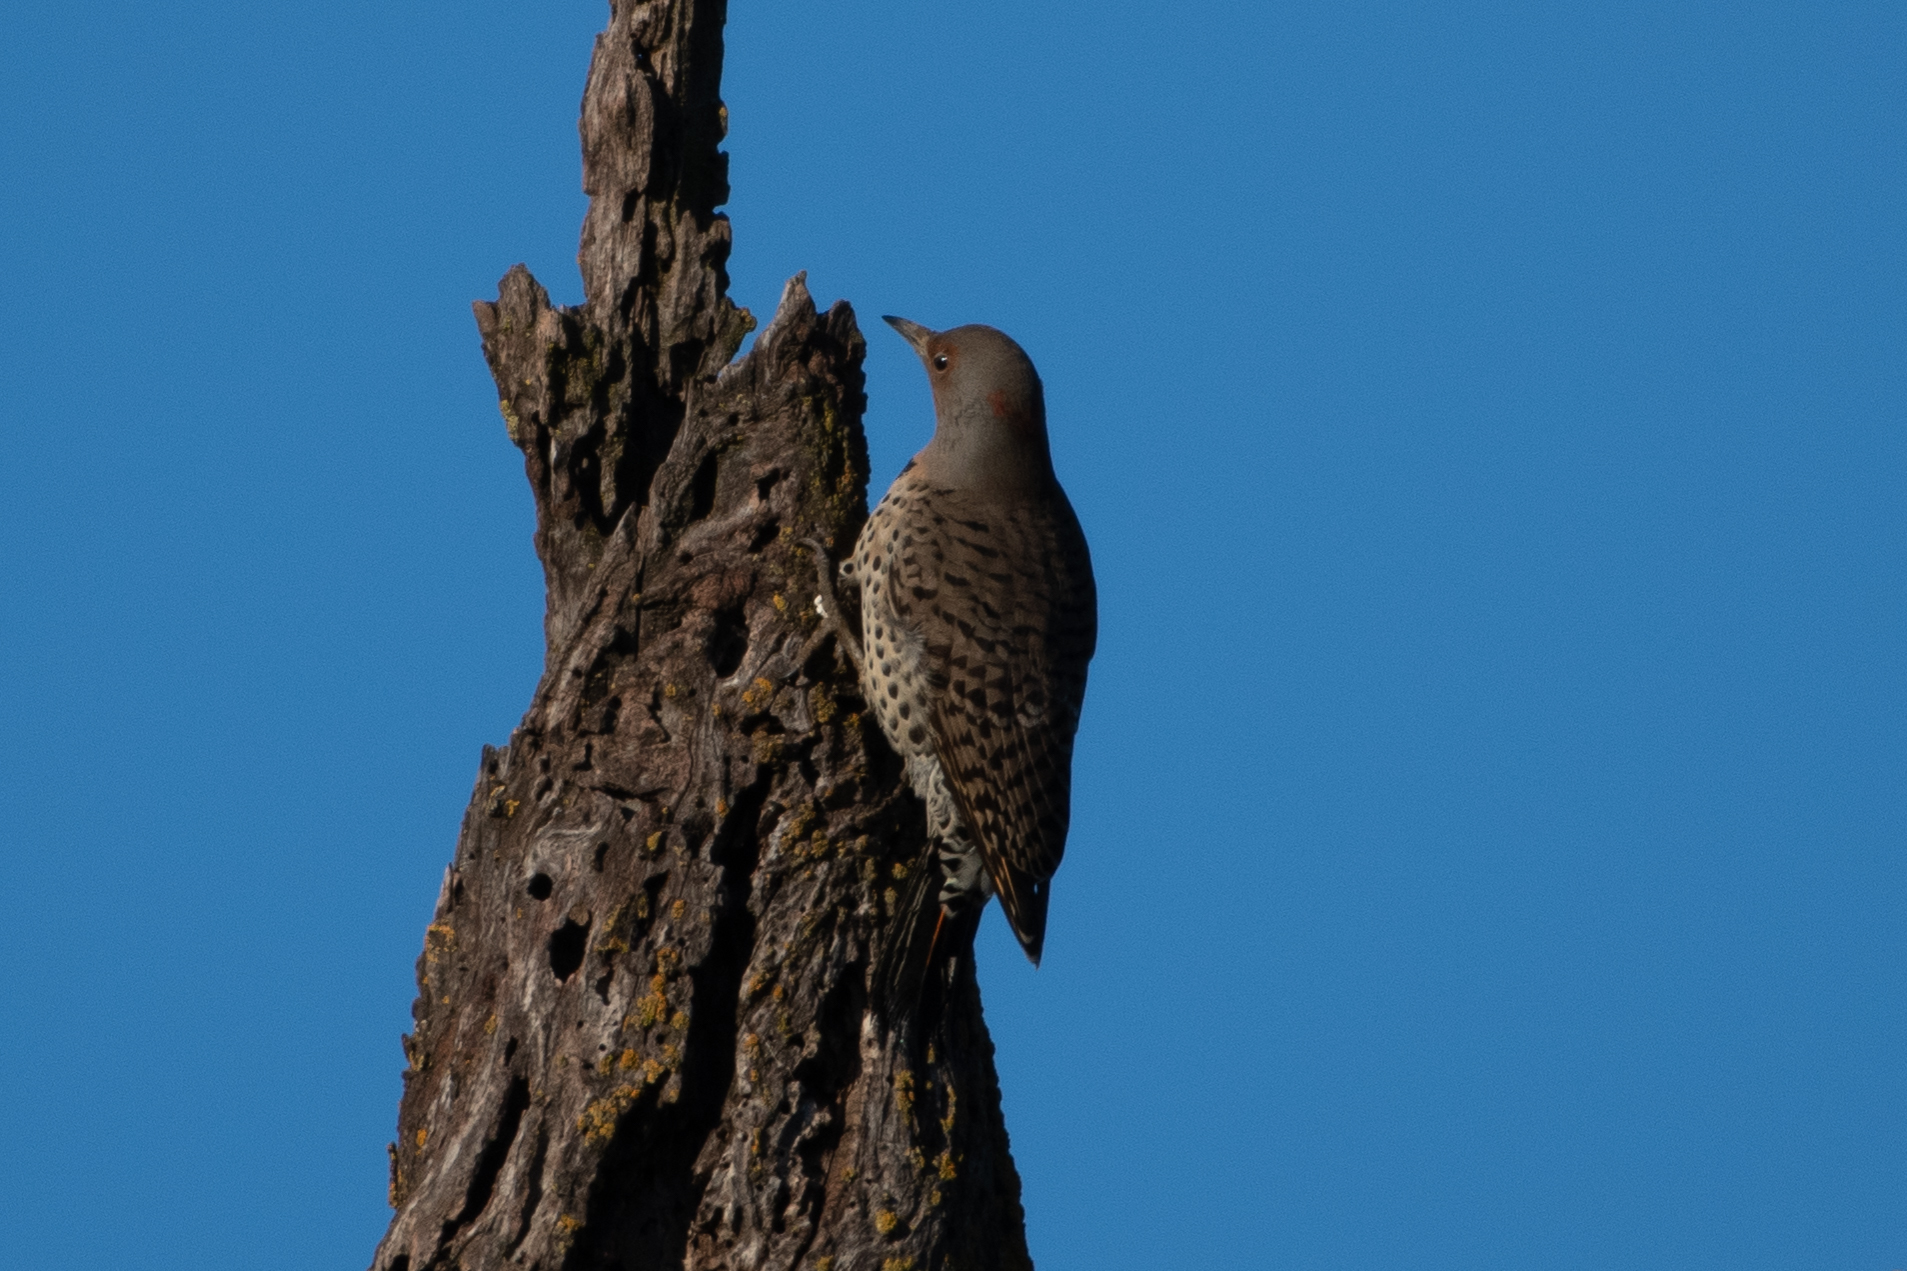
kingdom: Animalia
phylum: Chordata
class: Aves
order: Piciformes
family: Picidae
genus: Colaptes
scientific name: Colaptes auratus
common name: Northern flicker
